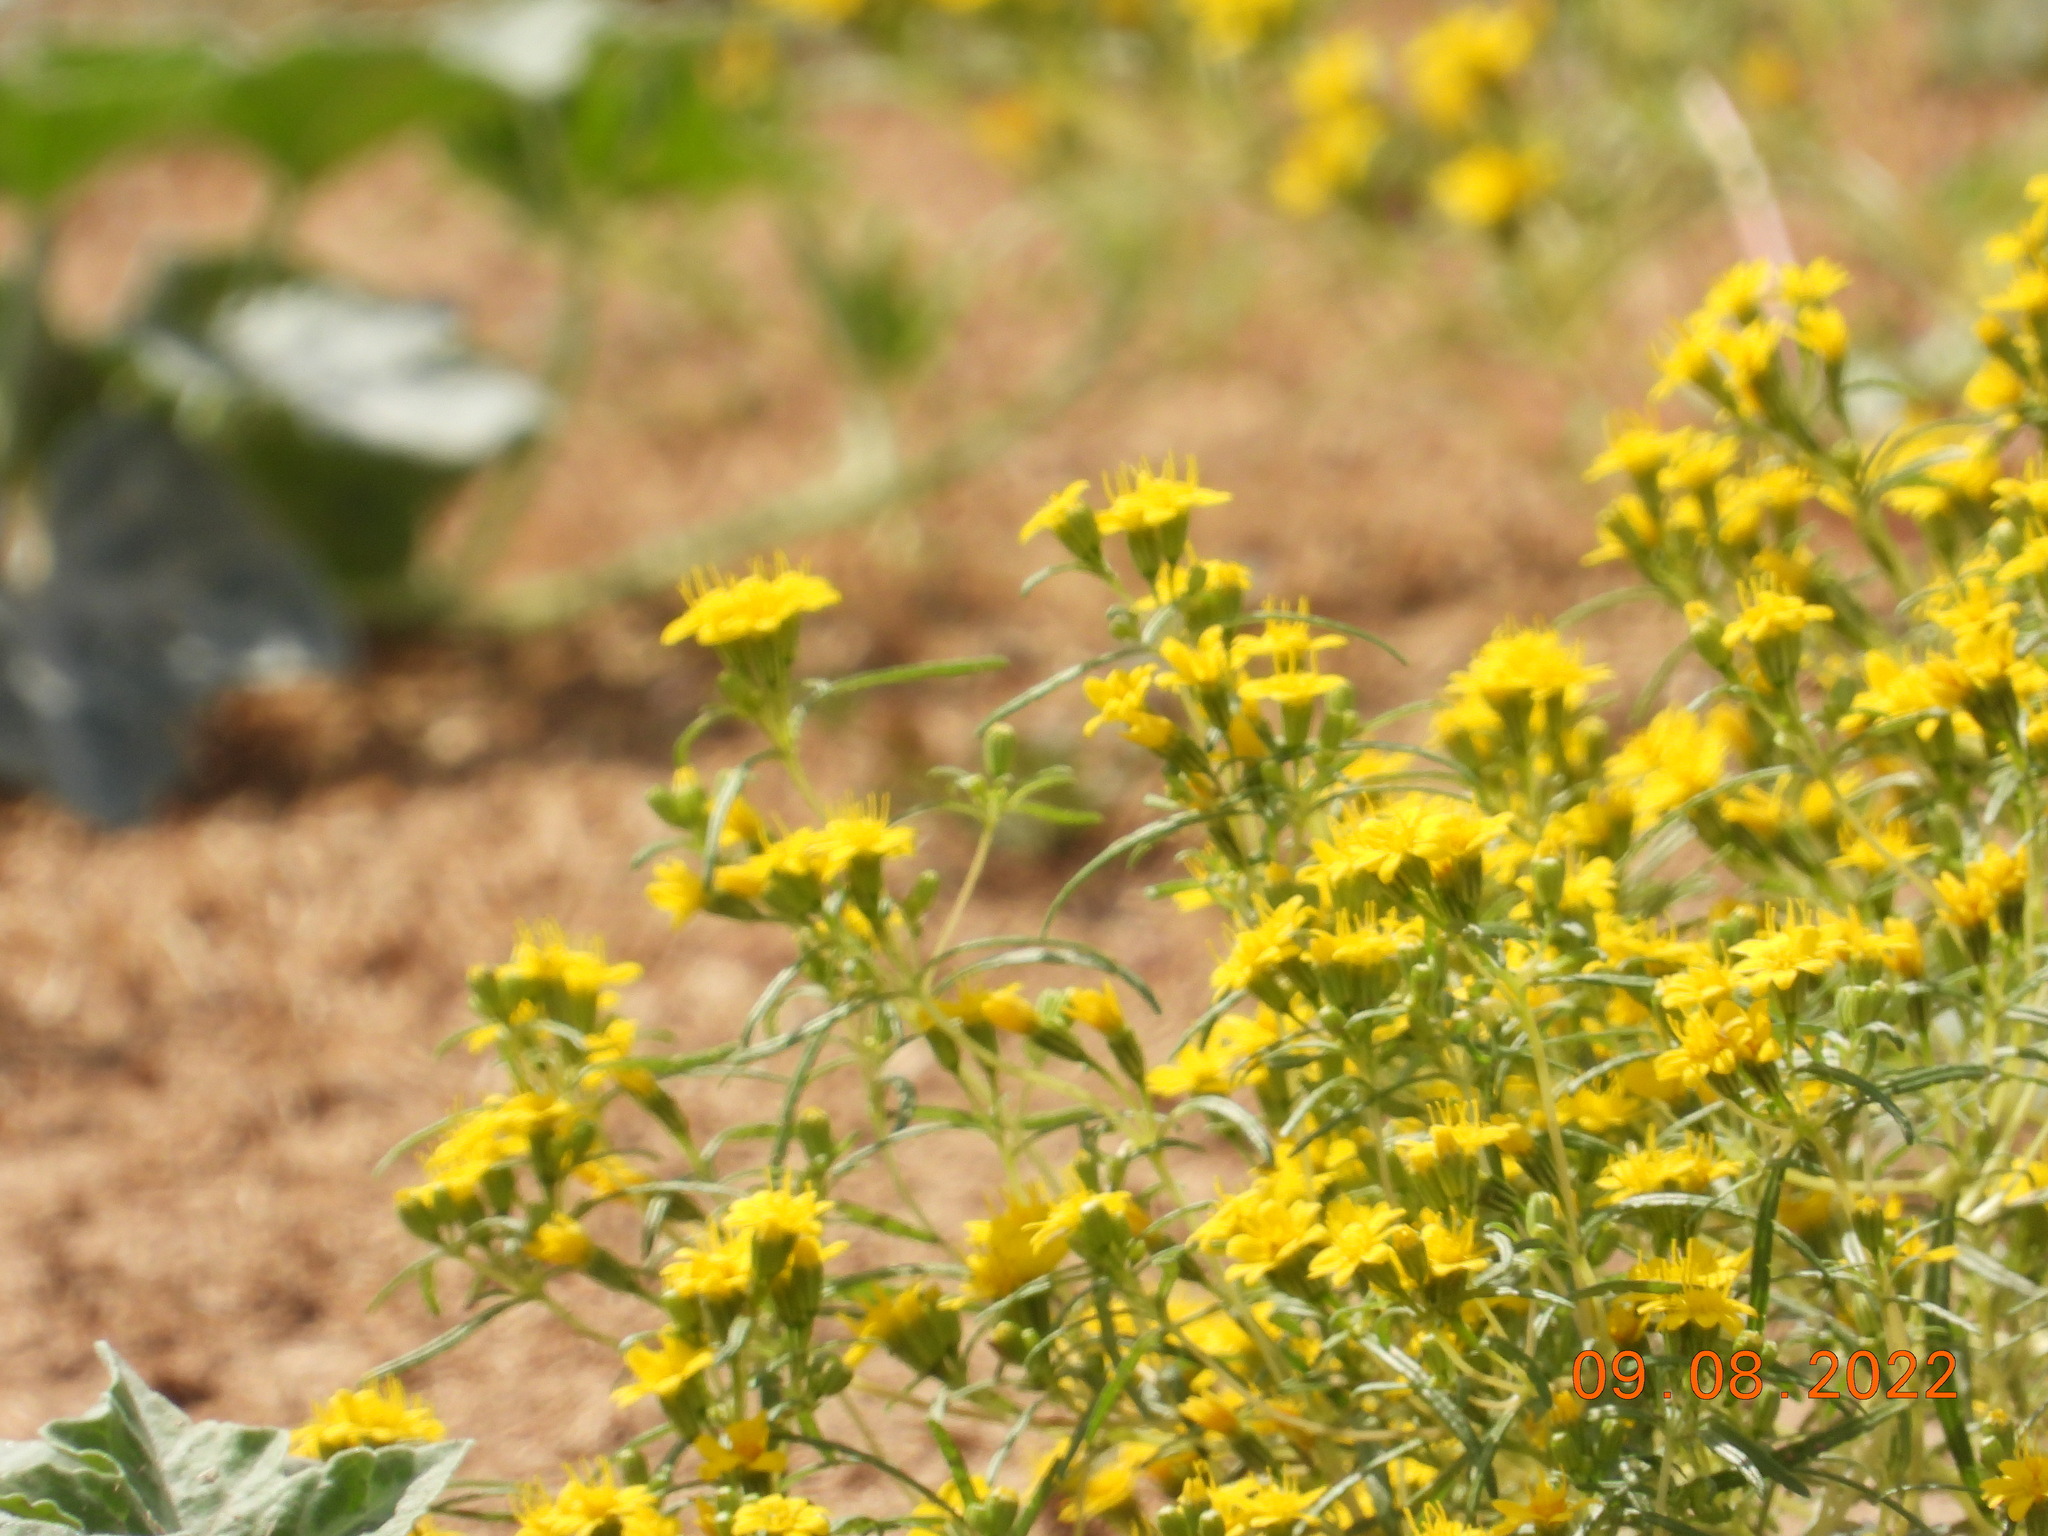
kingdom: Plantae
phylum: Tracheophyta
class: Magnoliopsida
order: Asterales
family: Asteraceae
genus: Pectis
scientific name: Pectis papposa
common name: Many-bristle chinchweed
